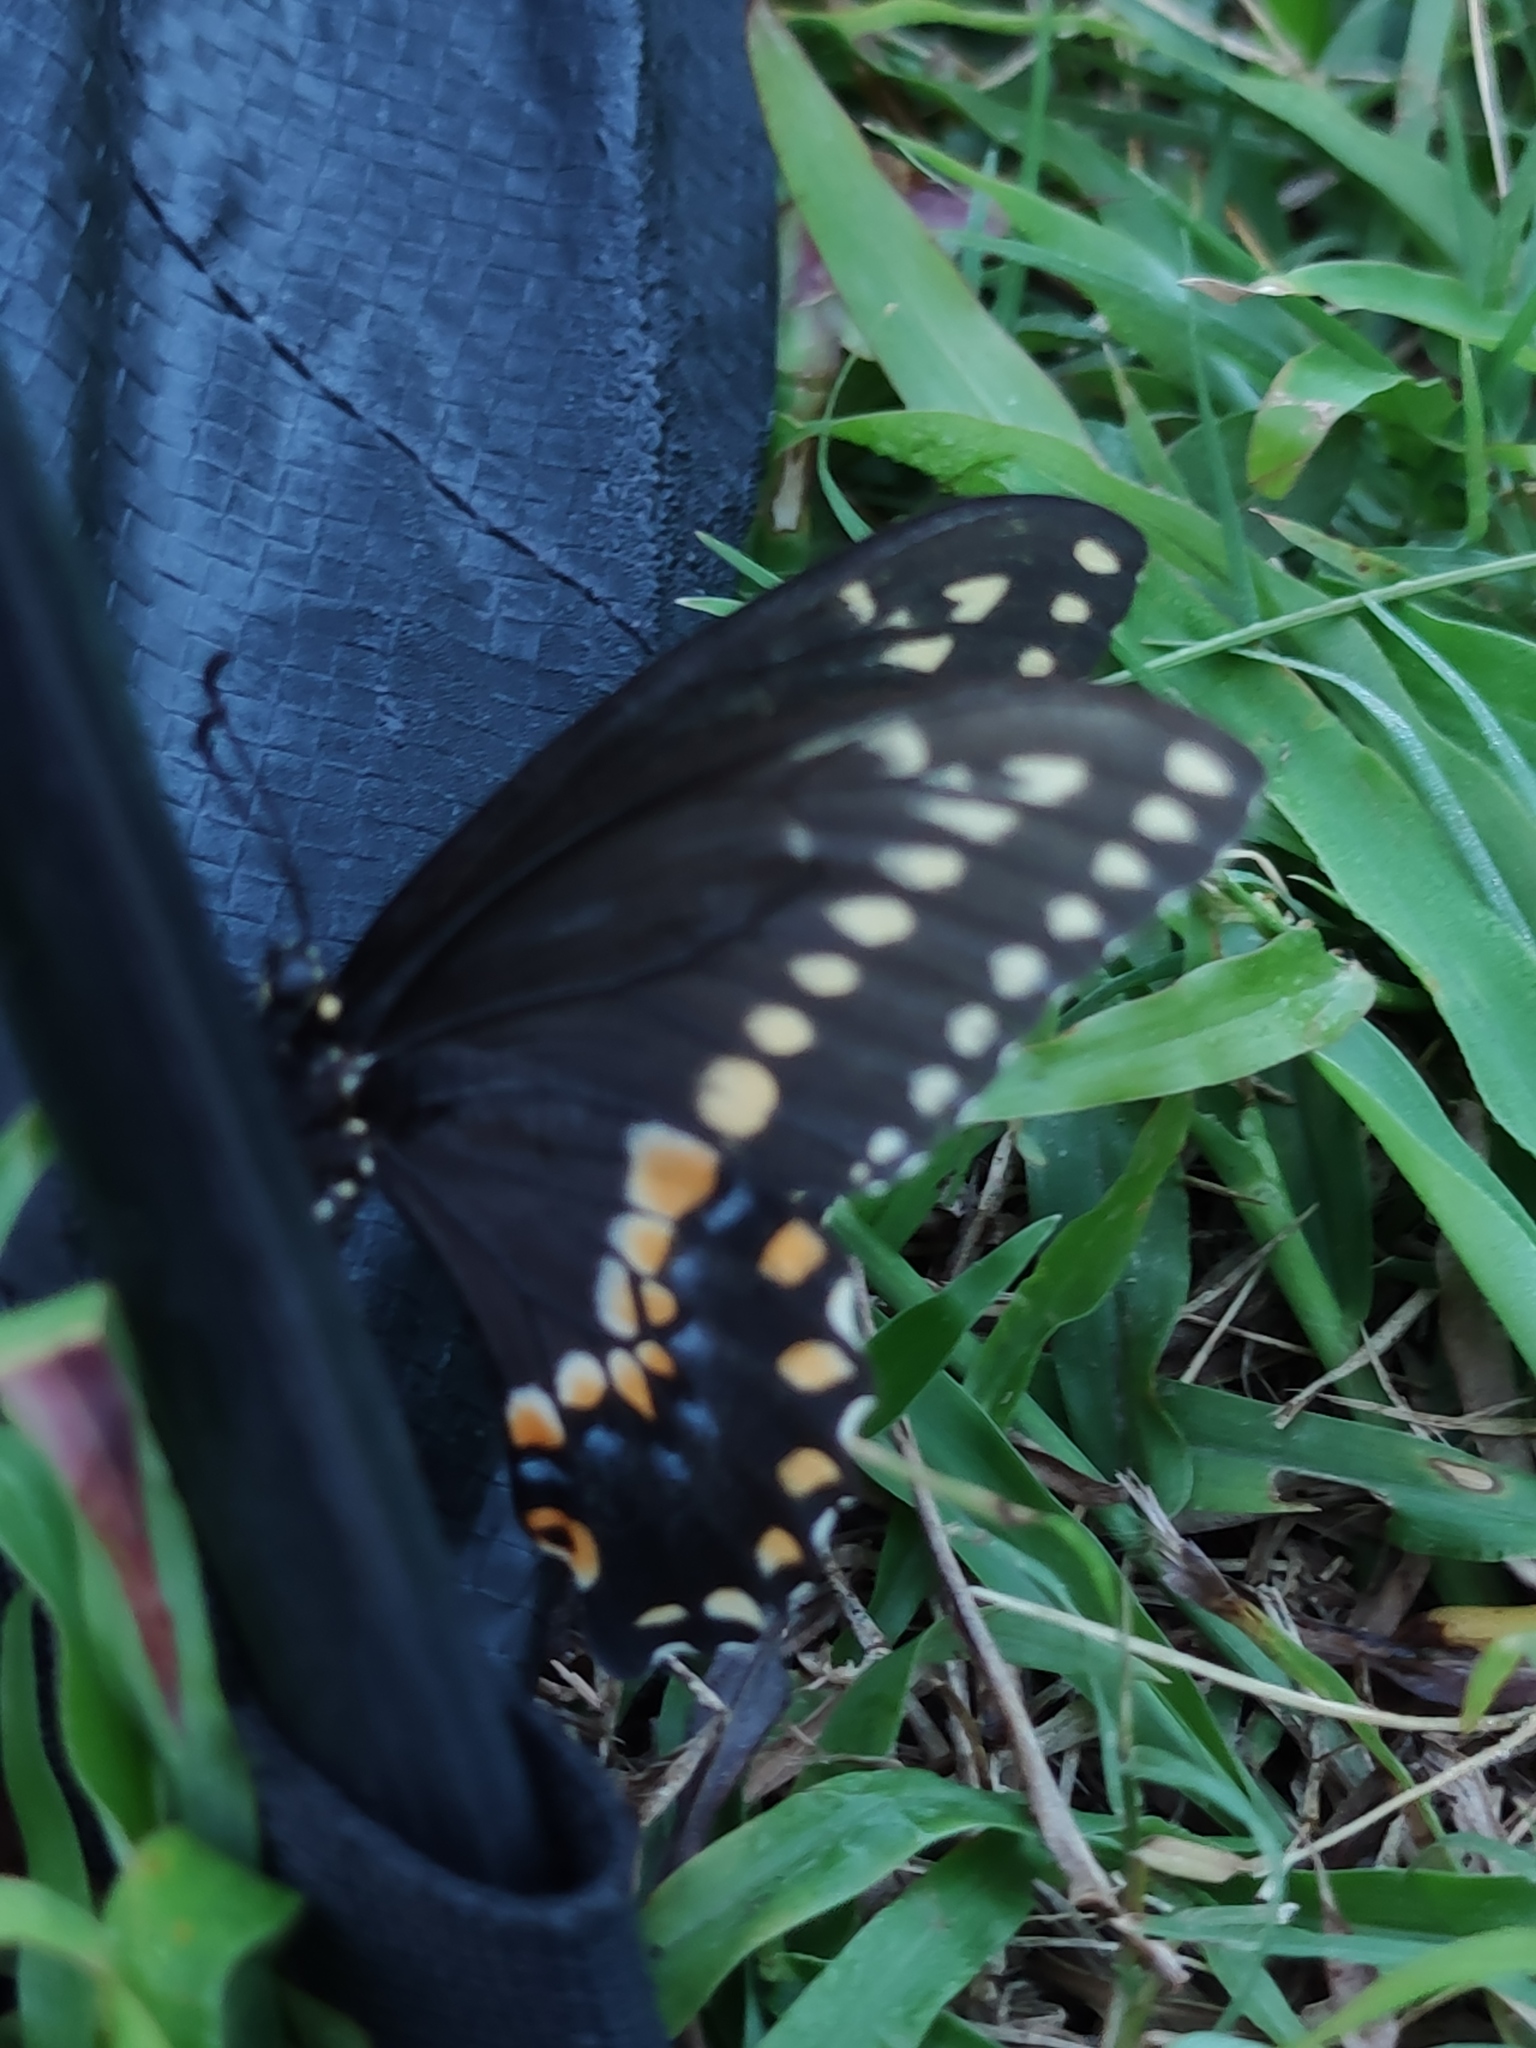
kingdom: Animalia
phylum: Arthropoda
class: Insecta
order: Lepidoptera
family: Papilionidae
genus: Papilio
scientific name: Papilio polyxenes
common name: Black swallowtail
